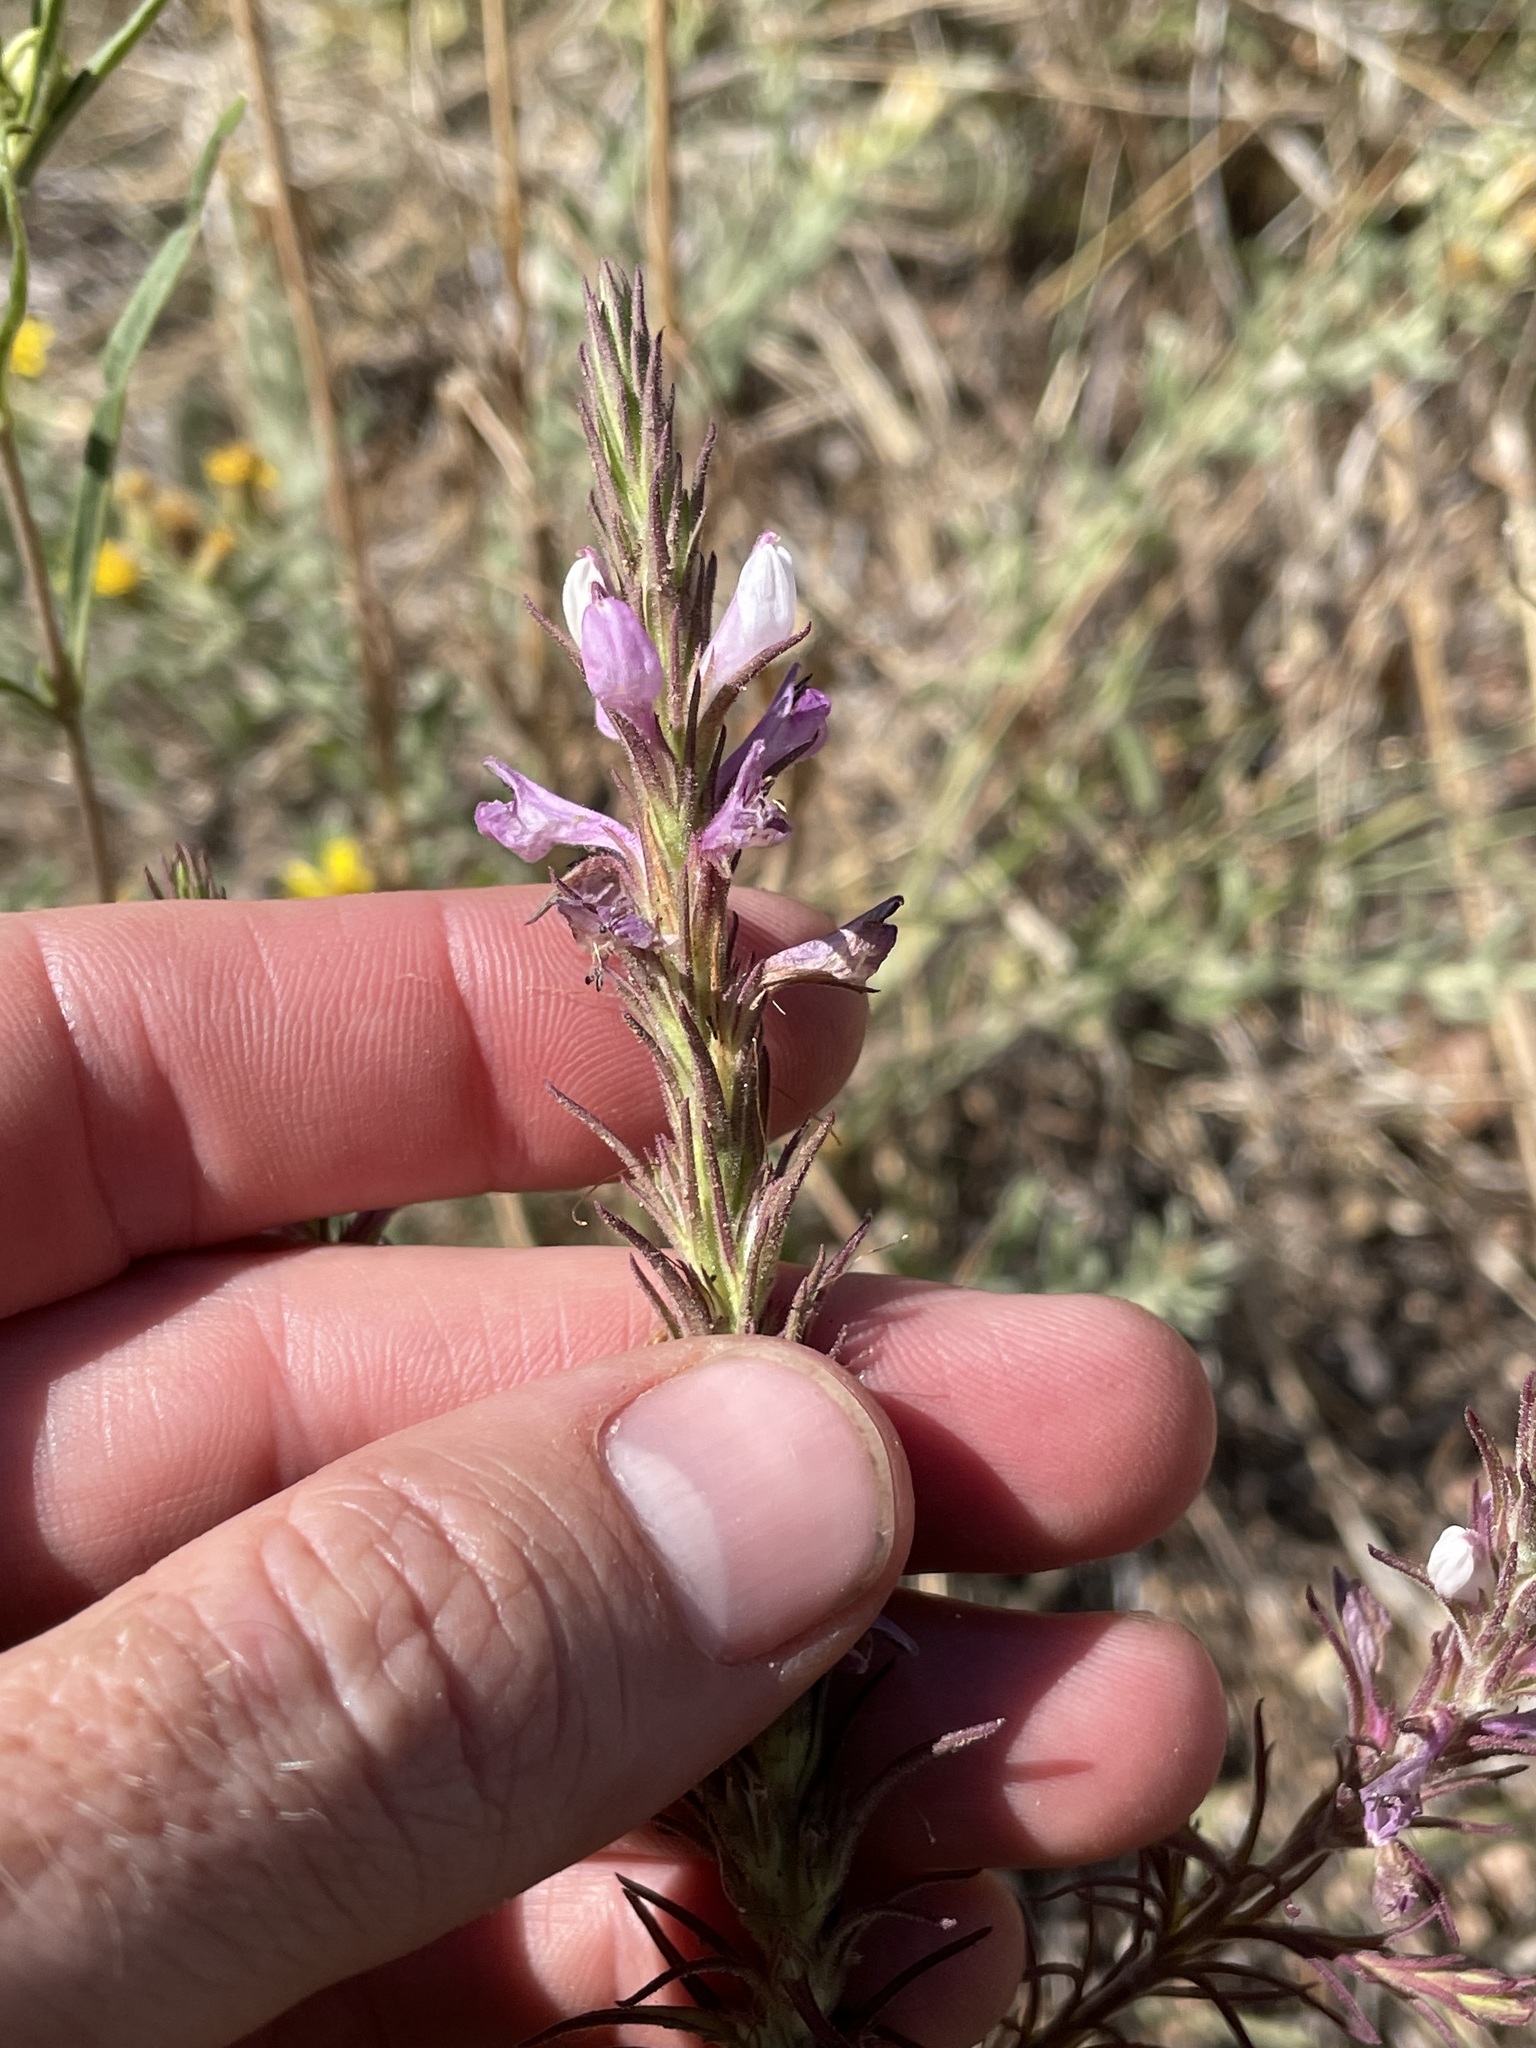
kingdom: Plantae
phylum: Tracheophyta
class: Magnoliopsida
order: Lamiales
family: Orobanchaceae
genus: Orthocarpus
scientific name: Orthocarpus purpureoalbus
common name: Violet owl-clover
